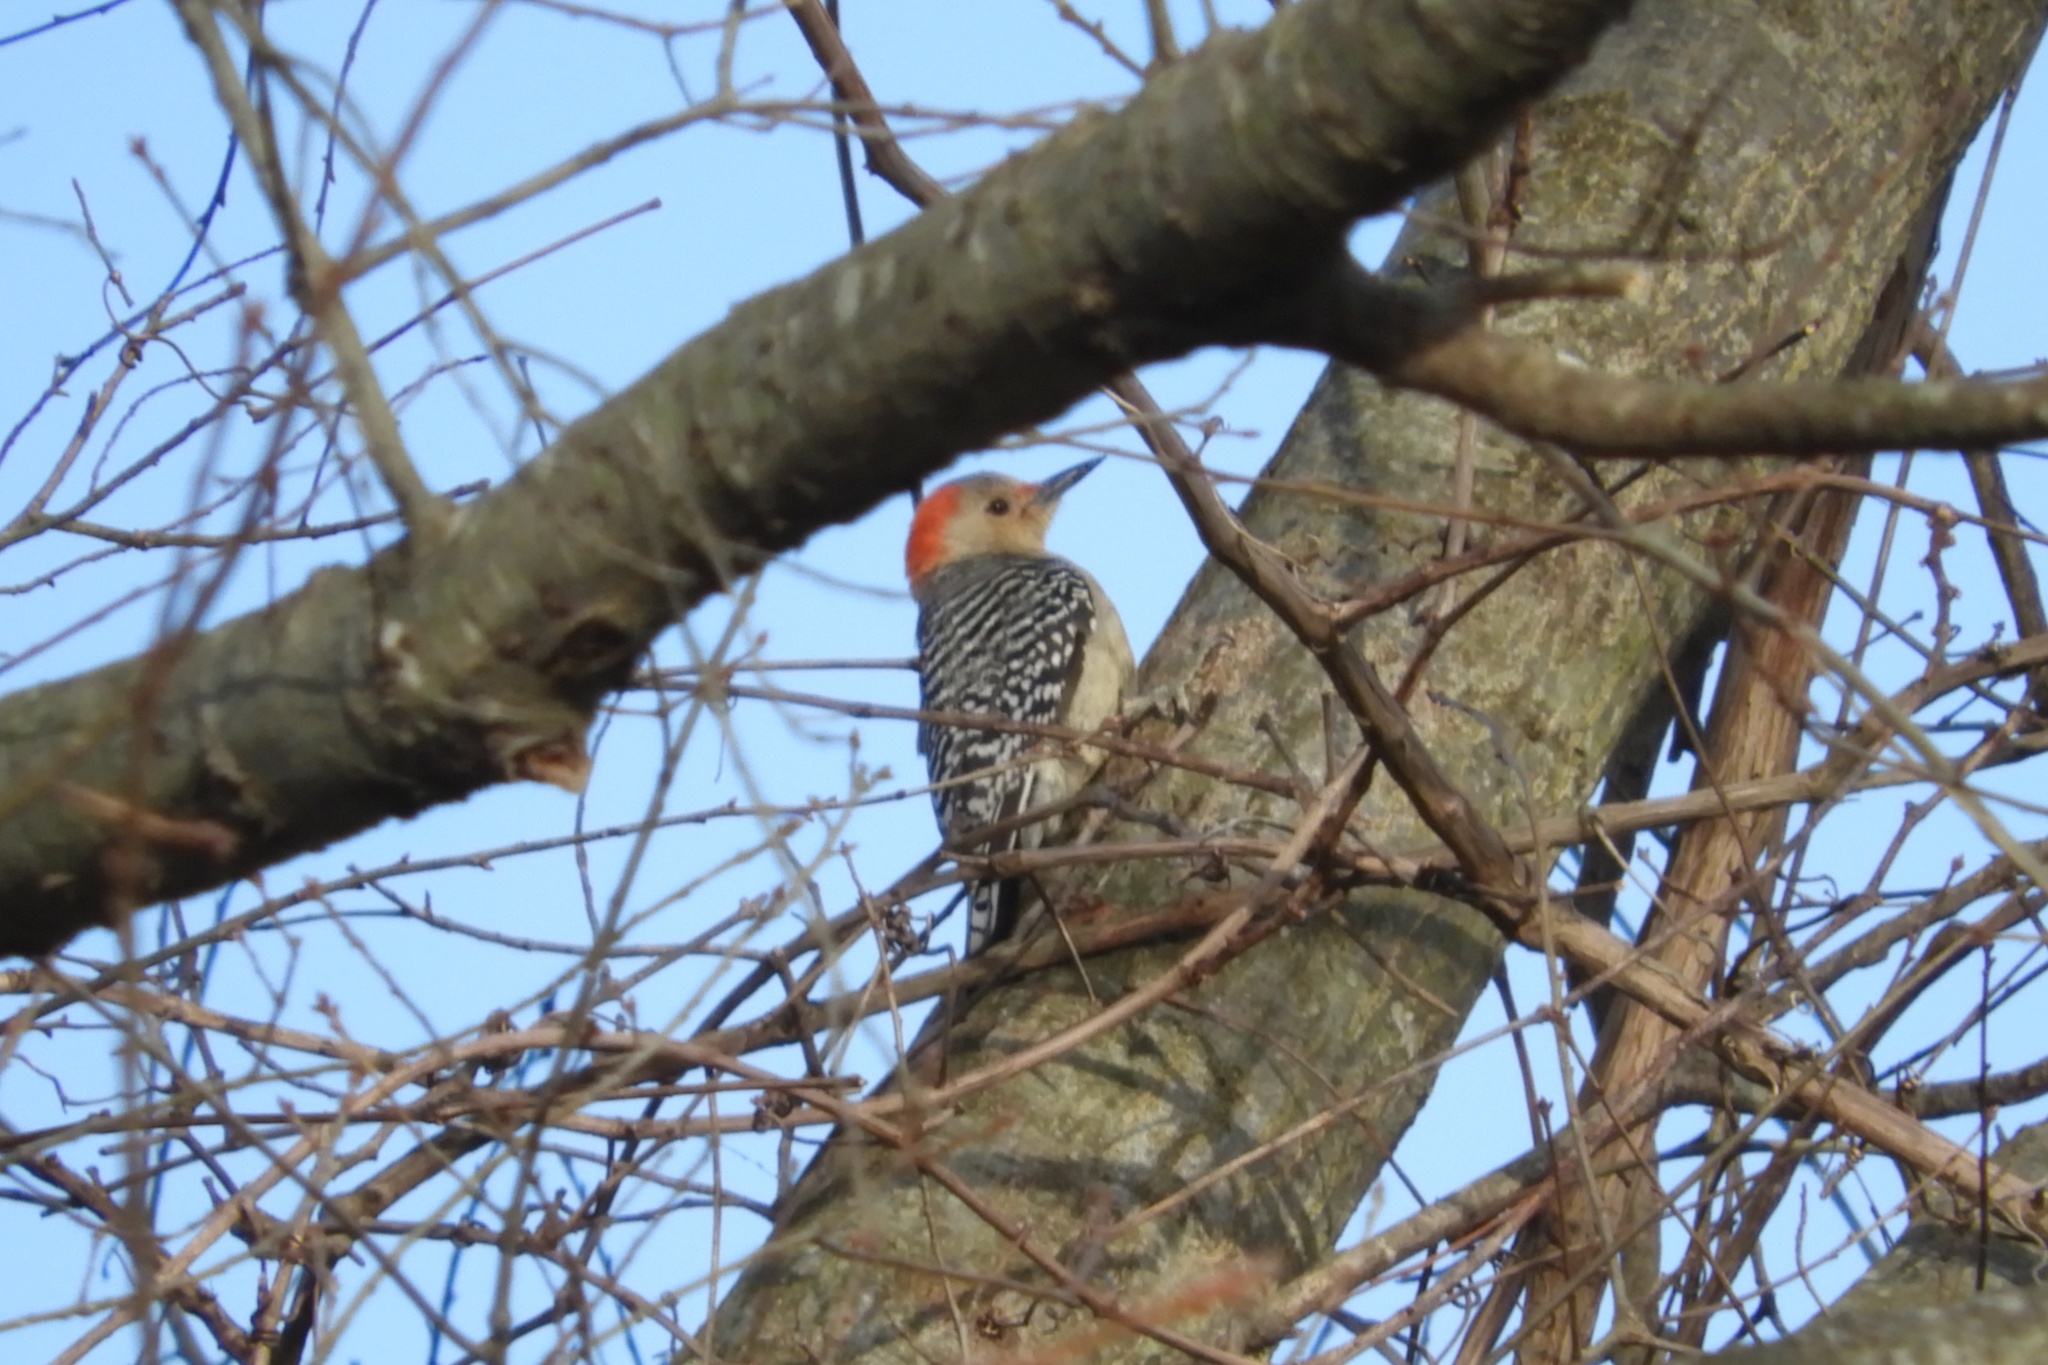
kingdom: Animalia
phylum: Chordata
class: Aves
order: Piciformes
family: Picidae
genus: Melanerpes
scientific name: Melanerpes carolinus
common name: Red-bellied woodpecker
